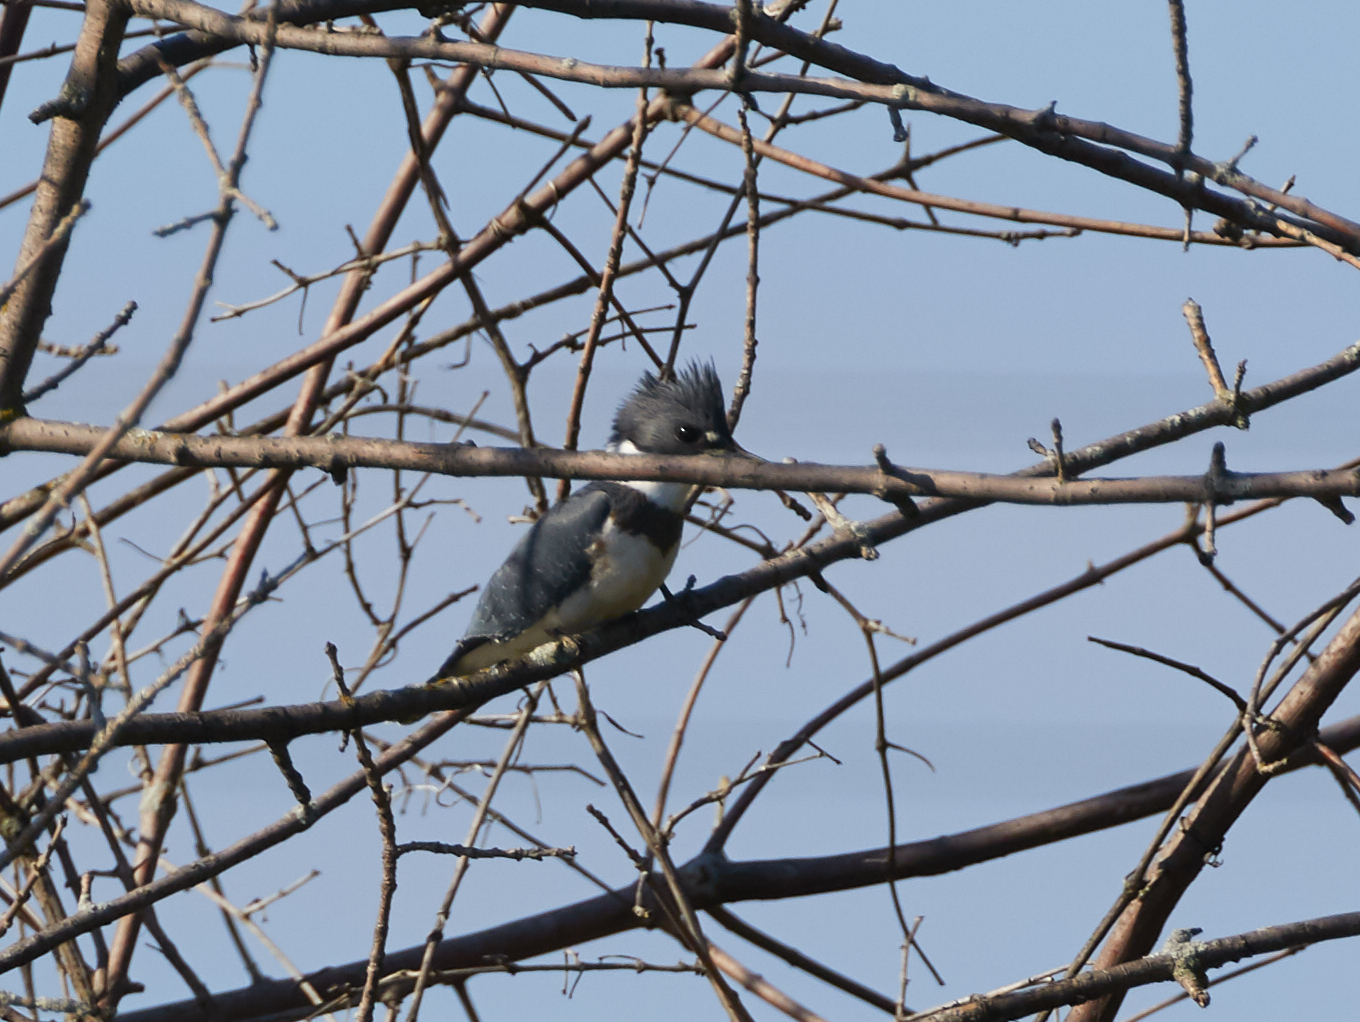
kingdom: Animalia
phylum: Chordata
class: Aves
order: Coraciiformes
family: Alcedinidae
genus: Megaceryle
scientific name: Megaceryle alcyon
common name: Belted kingfisher
